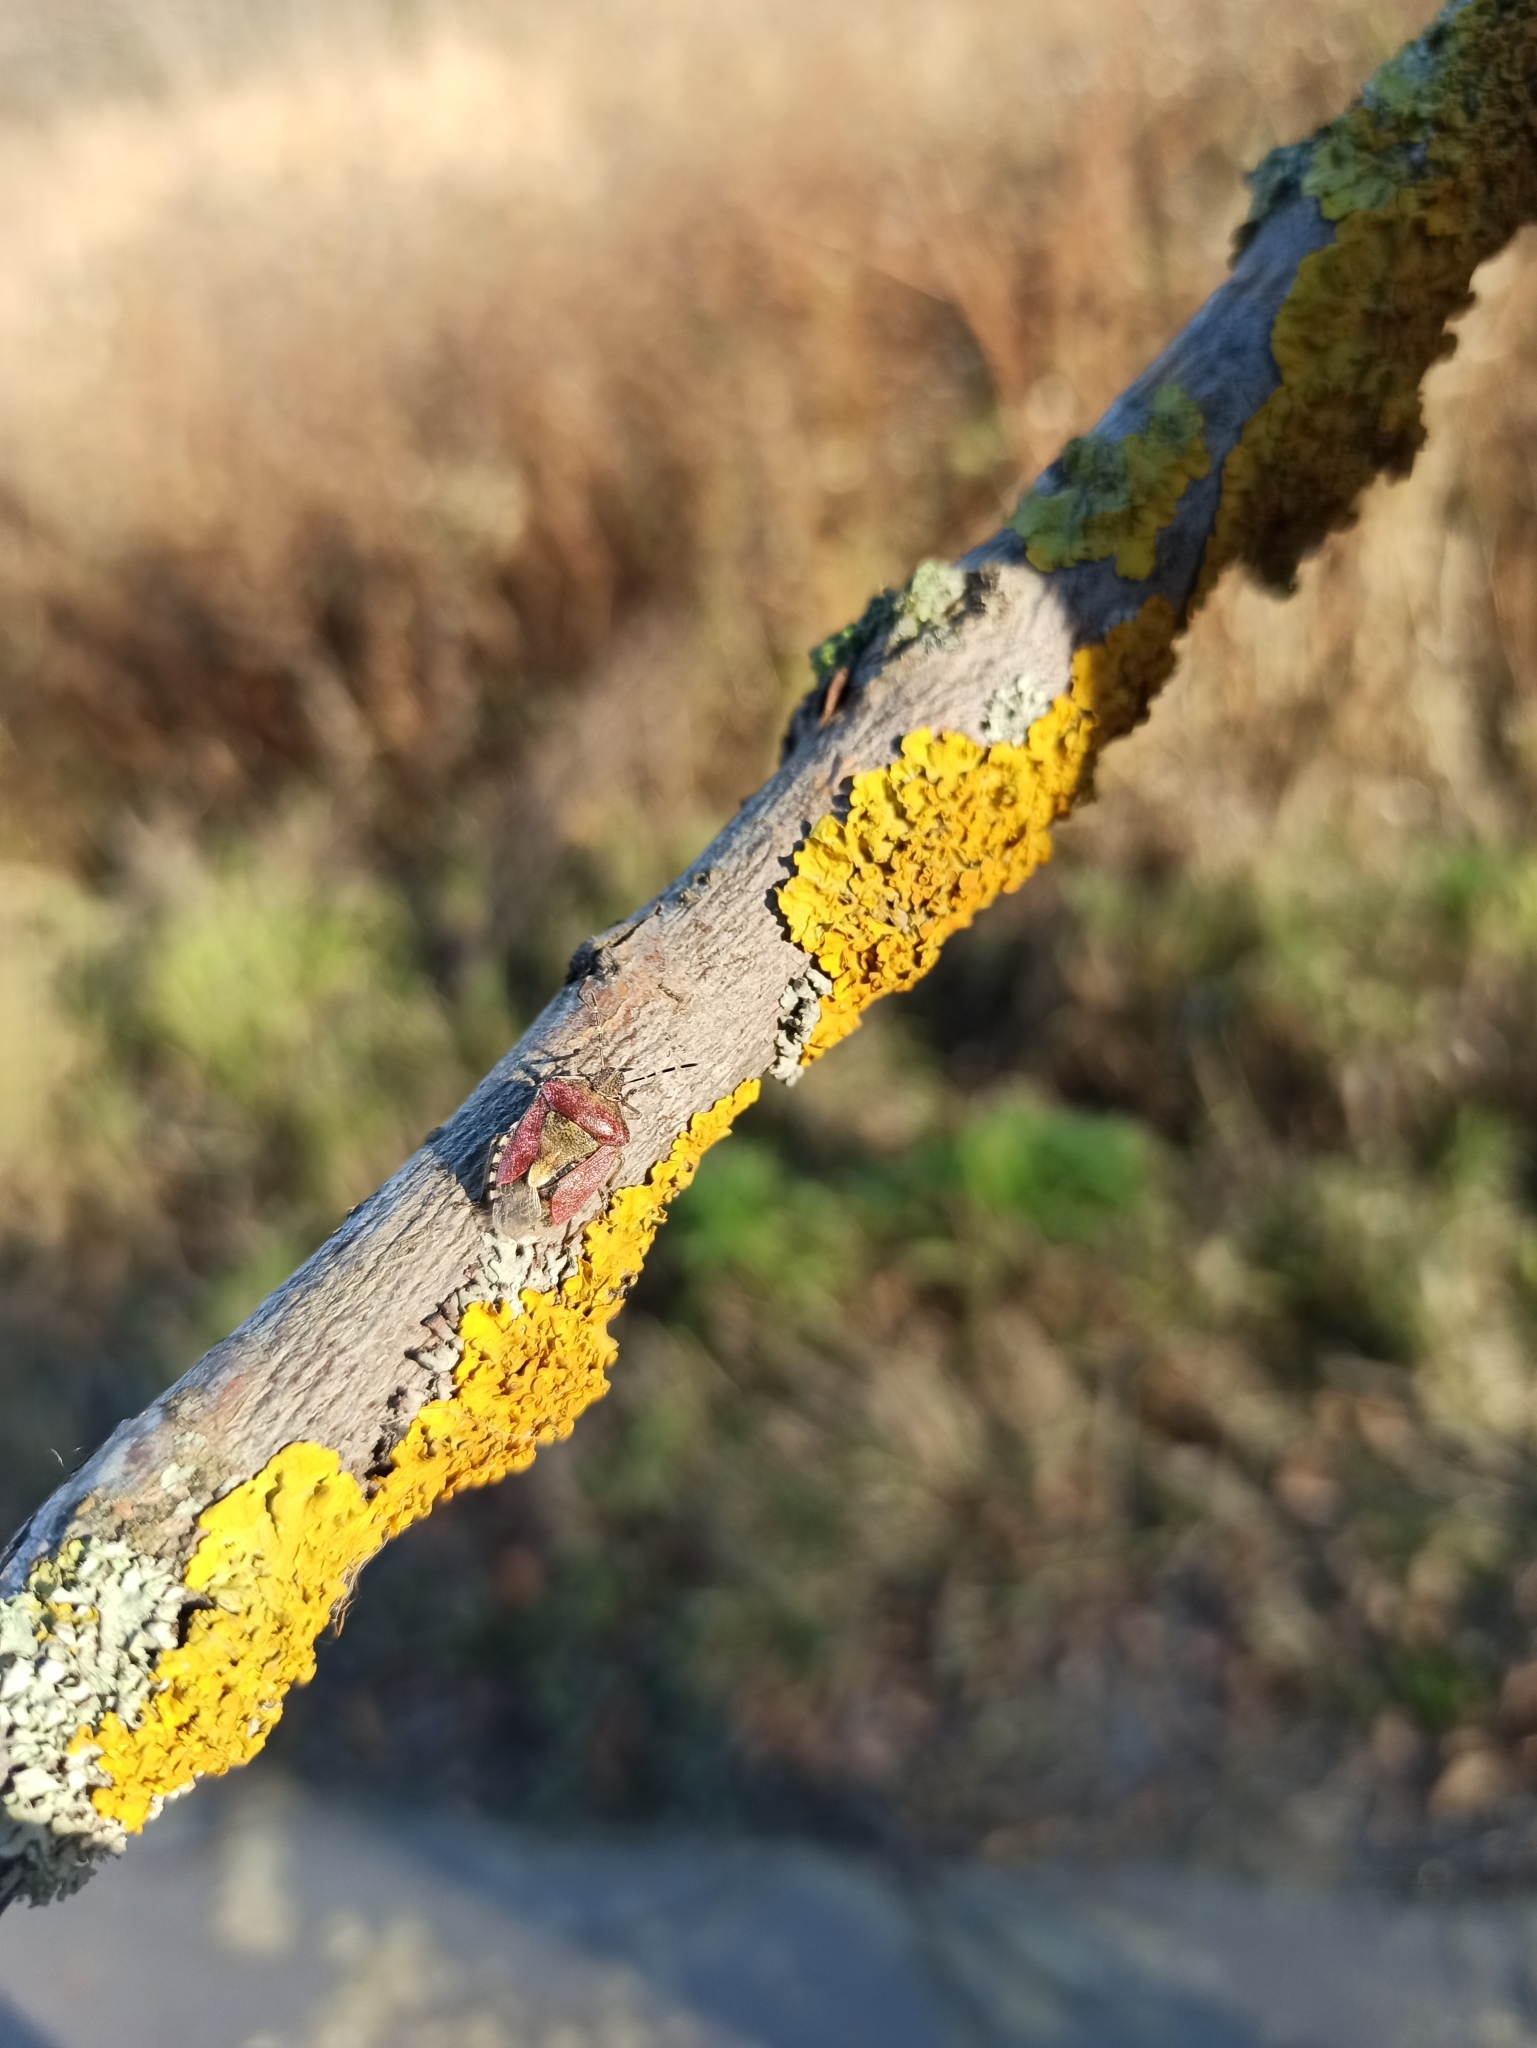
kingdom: Animalia
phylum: Arthropoda
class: Insecta
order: Hemiptera
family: Pentatomidae
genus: Dolycoris
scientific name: Dolycoris baccarum
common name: Sloe bug
